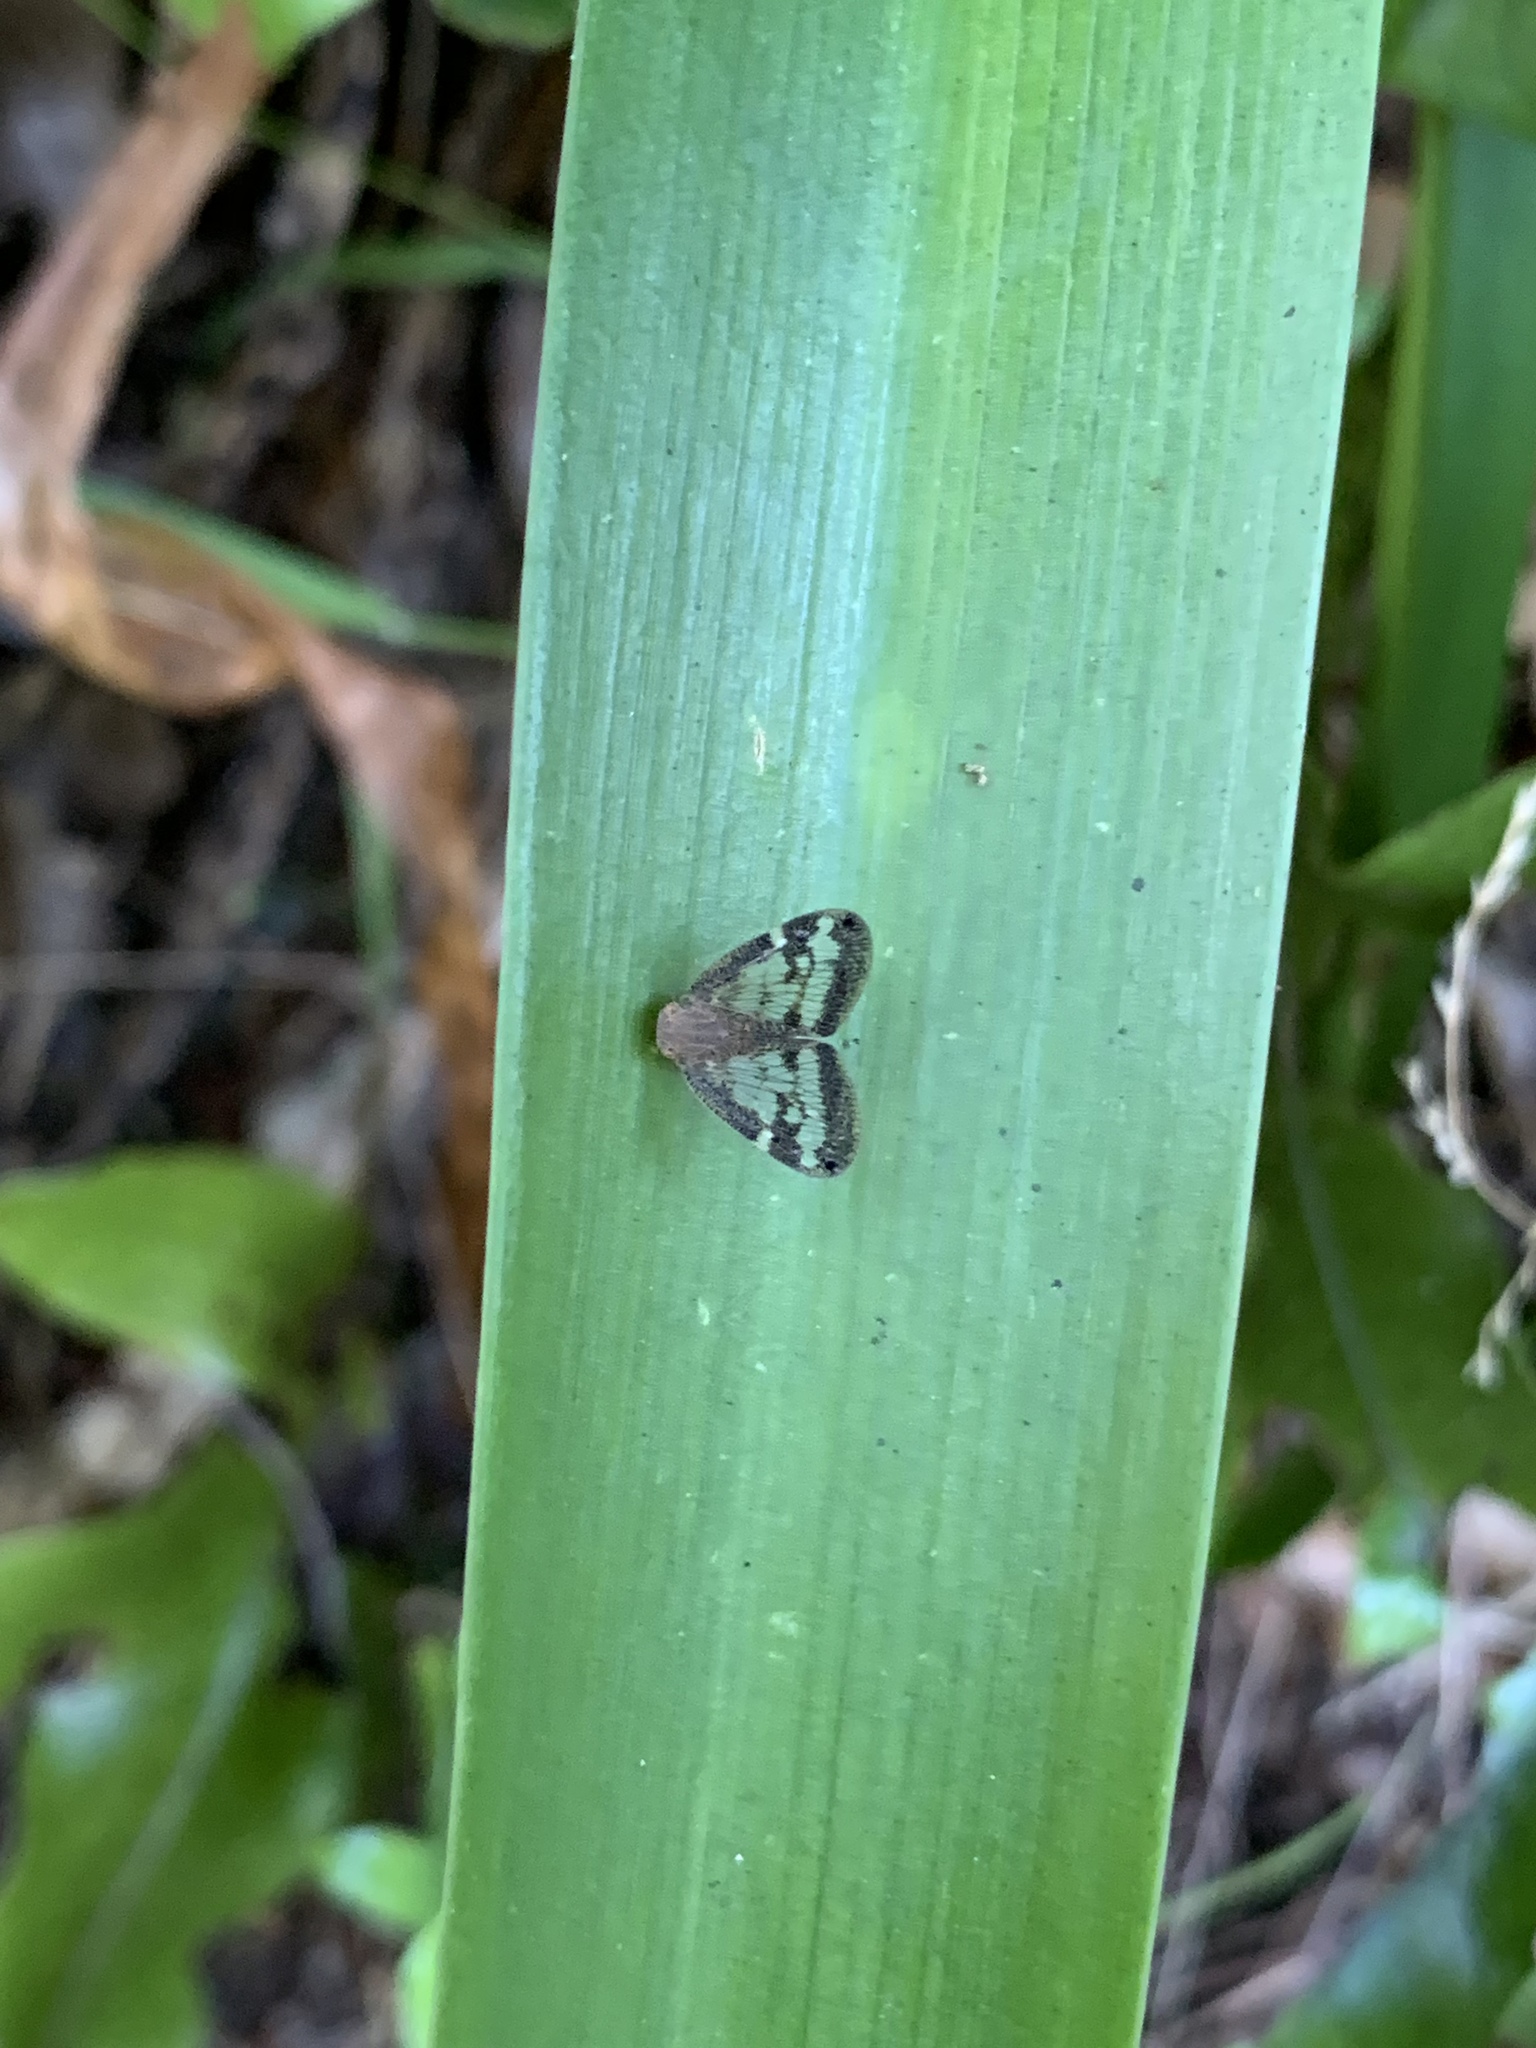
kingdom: Animalia
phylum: Arthropoda
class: Insecta
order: Hemiptera
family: Ricaniidae
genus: Scolypopa
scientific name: Scolypopa australis
